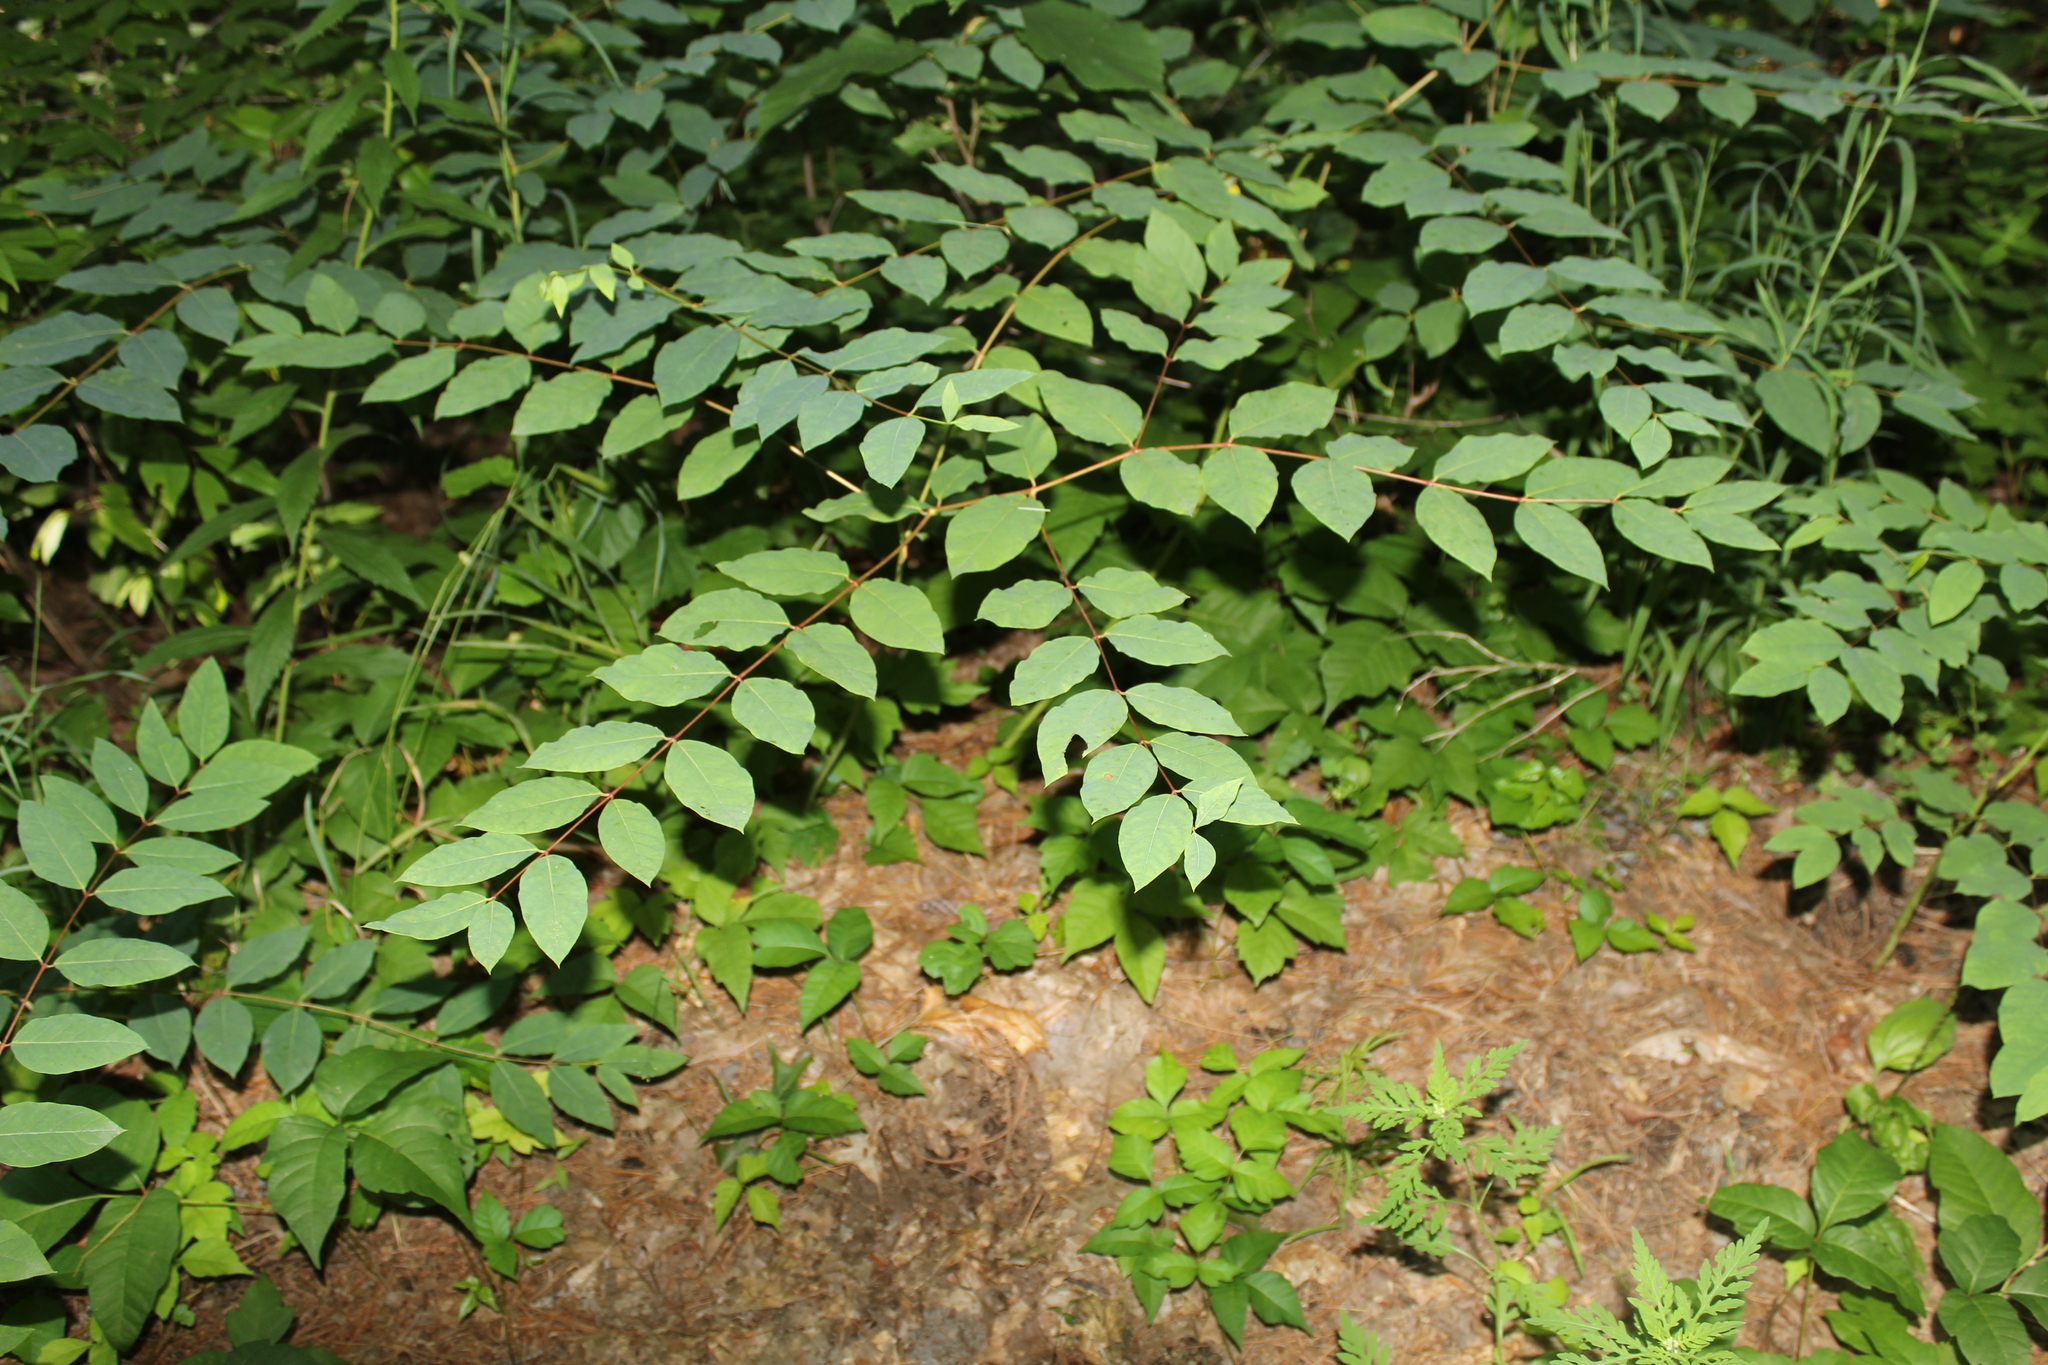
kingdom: Plantae
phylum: Tracheophyta
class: Magnoliopsida
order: Gentianales
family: Apocynaceae
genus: Apocynum
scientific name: Apocynum androsaemifolium
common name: Spreading dogbane
